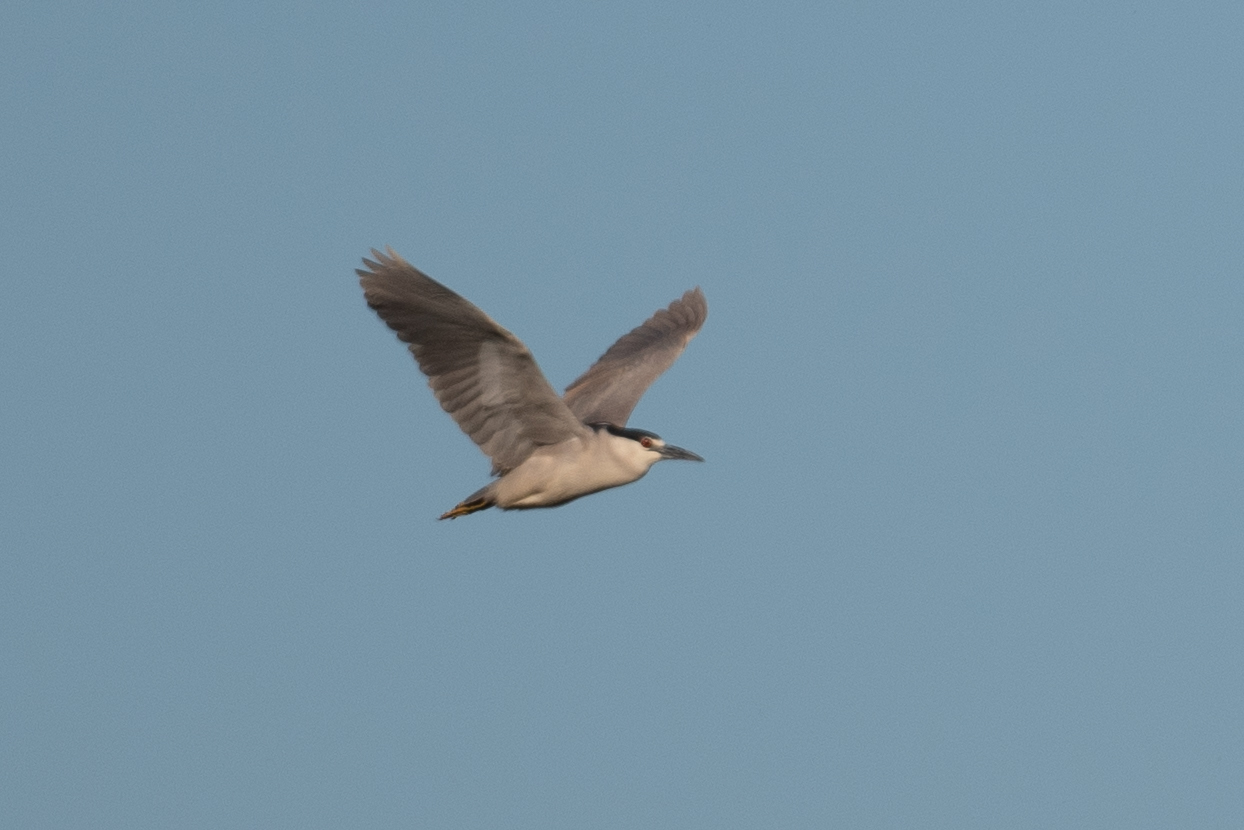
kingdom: Animalia
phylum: Chordata
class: Aves
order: Pelecaniformes
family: Ardeidae
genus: Nycticorax
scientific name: Nycticorax nycticorax
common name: Black-crowned night heron
